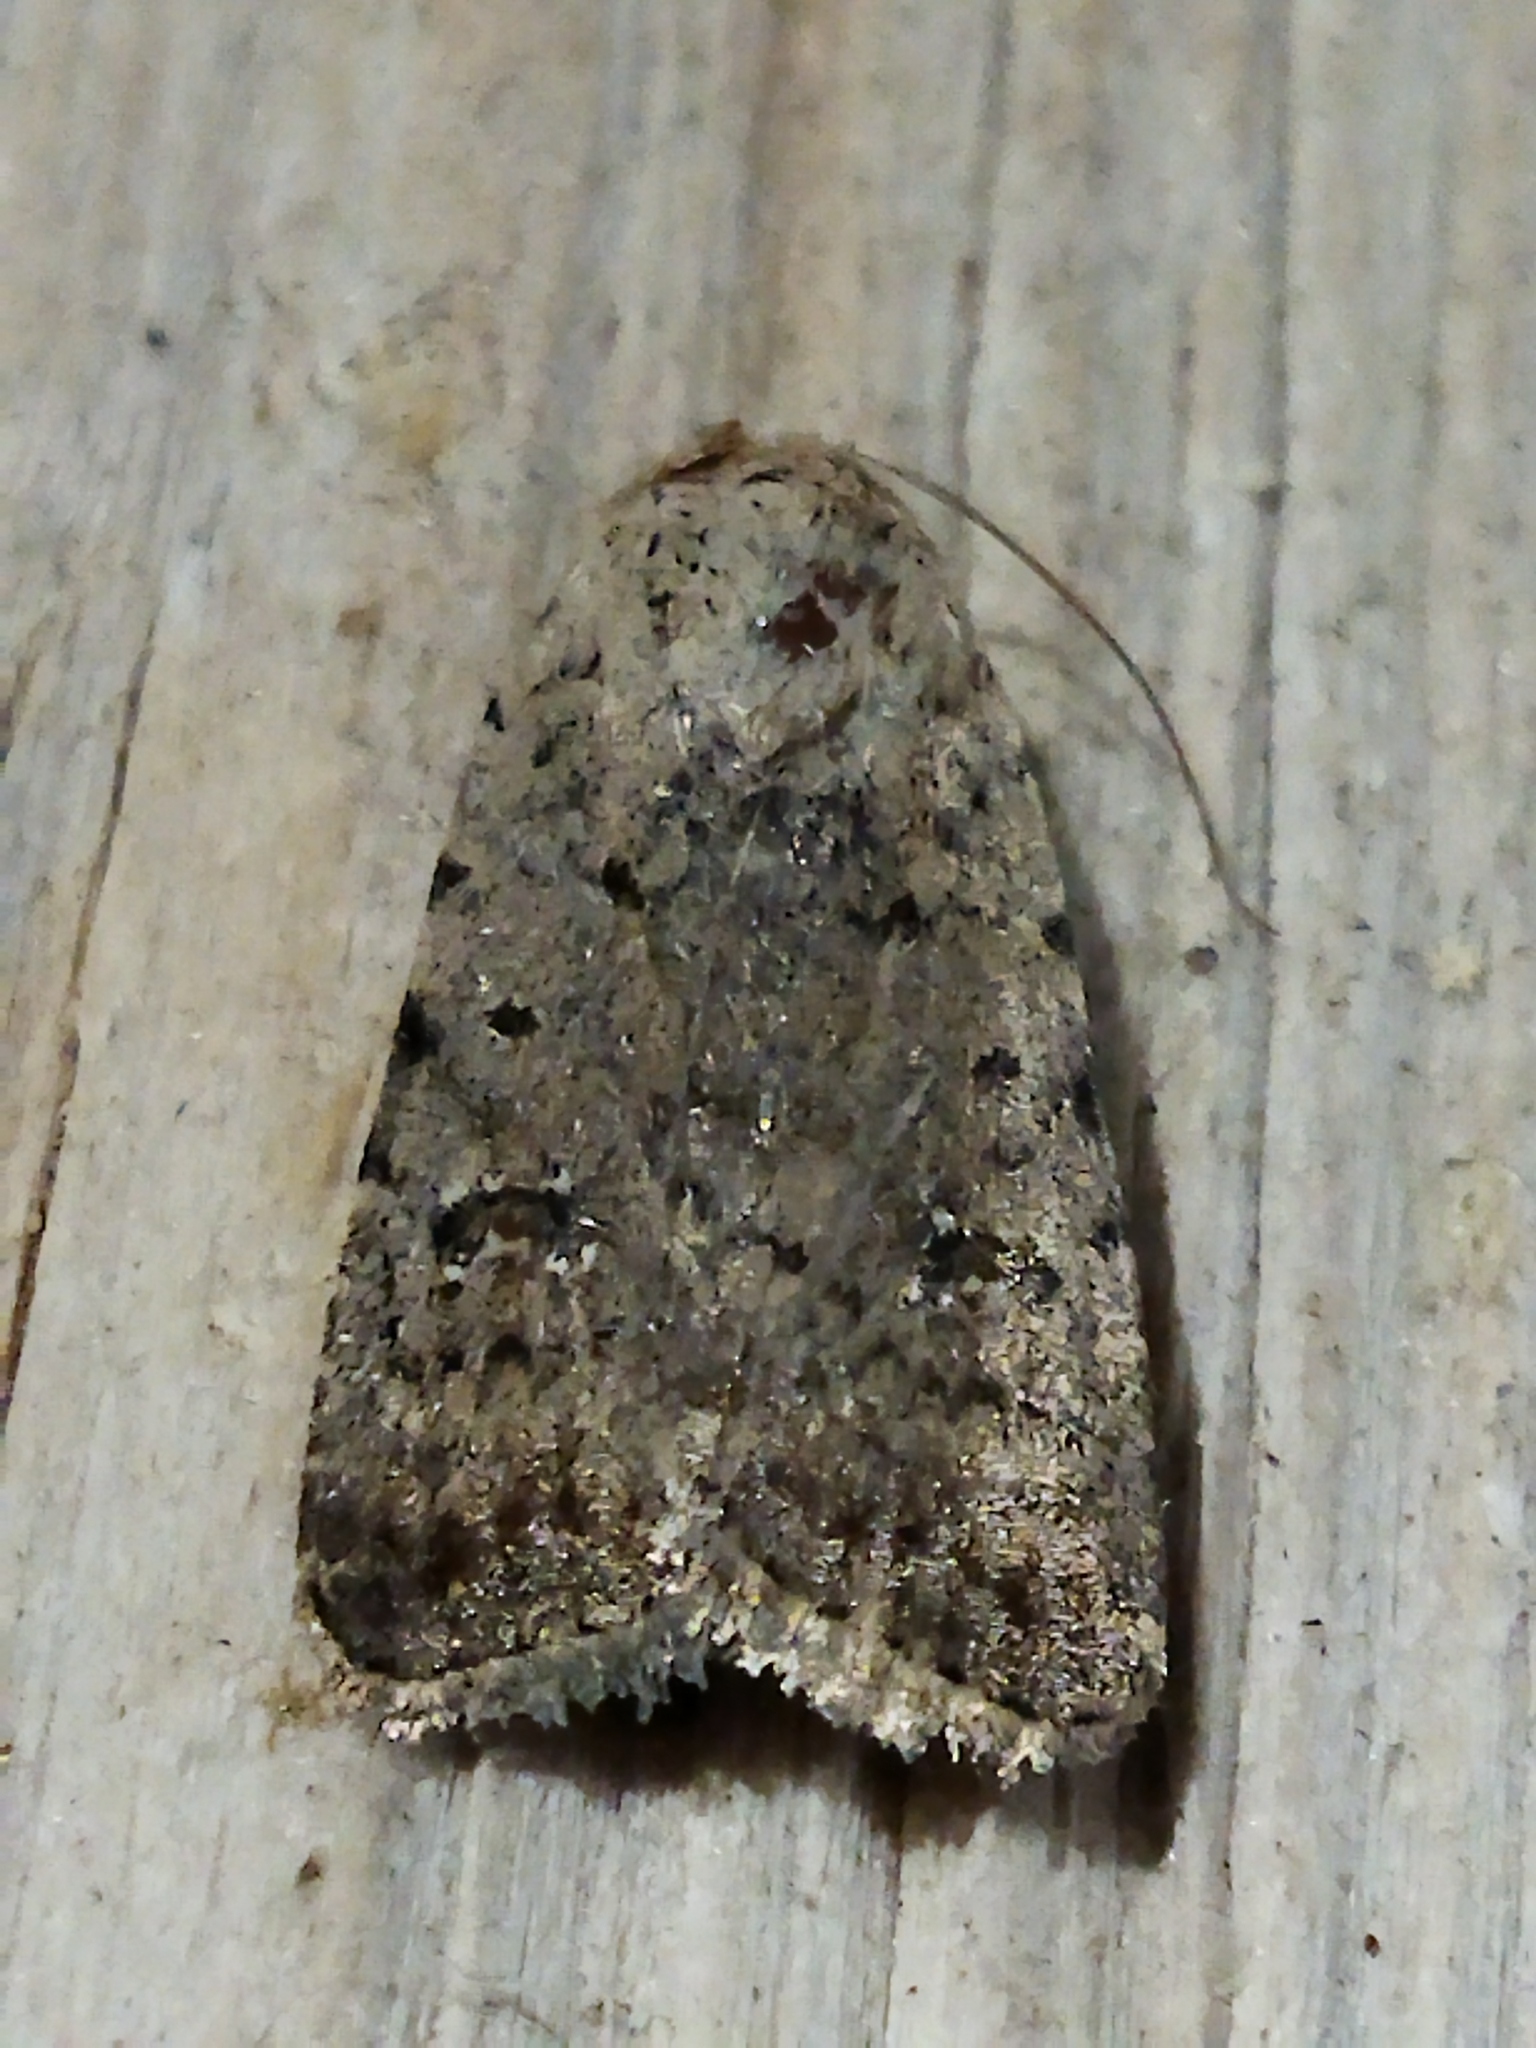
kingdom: Animalia
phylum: Arthropoda
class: Insecta
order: Lepidoptera
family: Noctuidae
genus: Caradrina
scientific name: Caradrina clavipalpis
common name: Pale mottled willow
